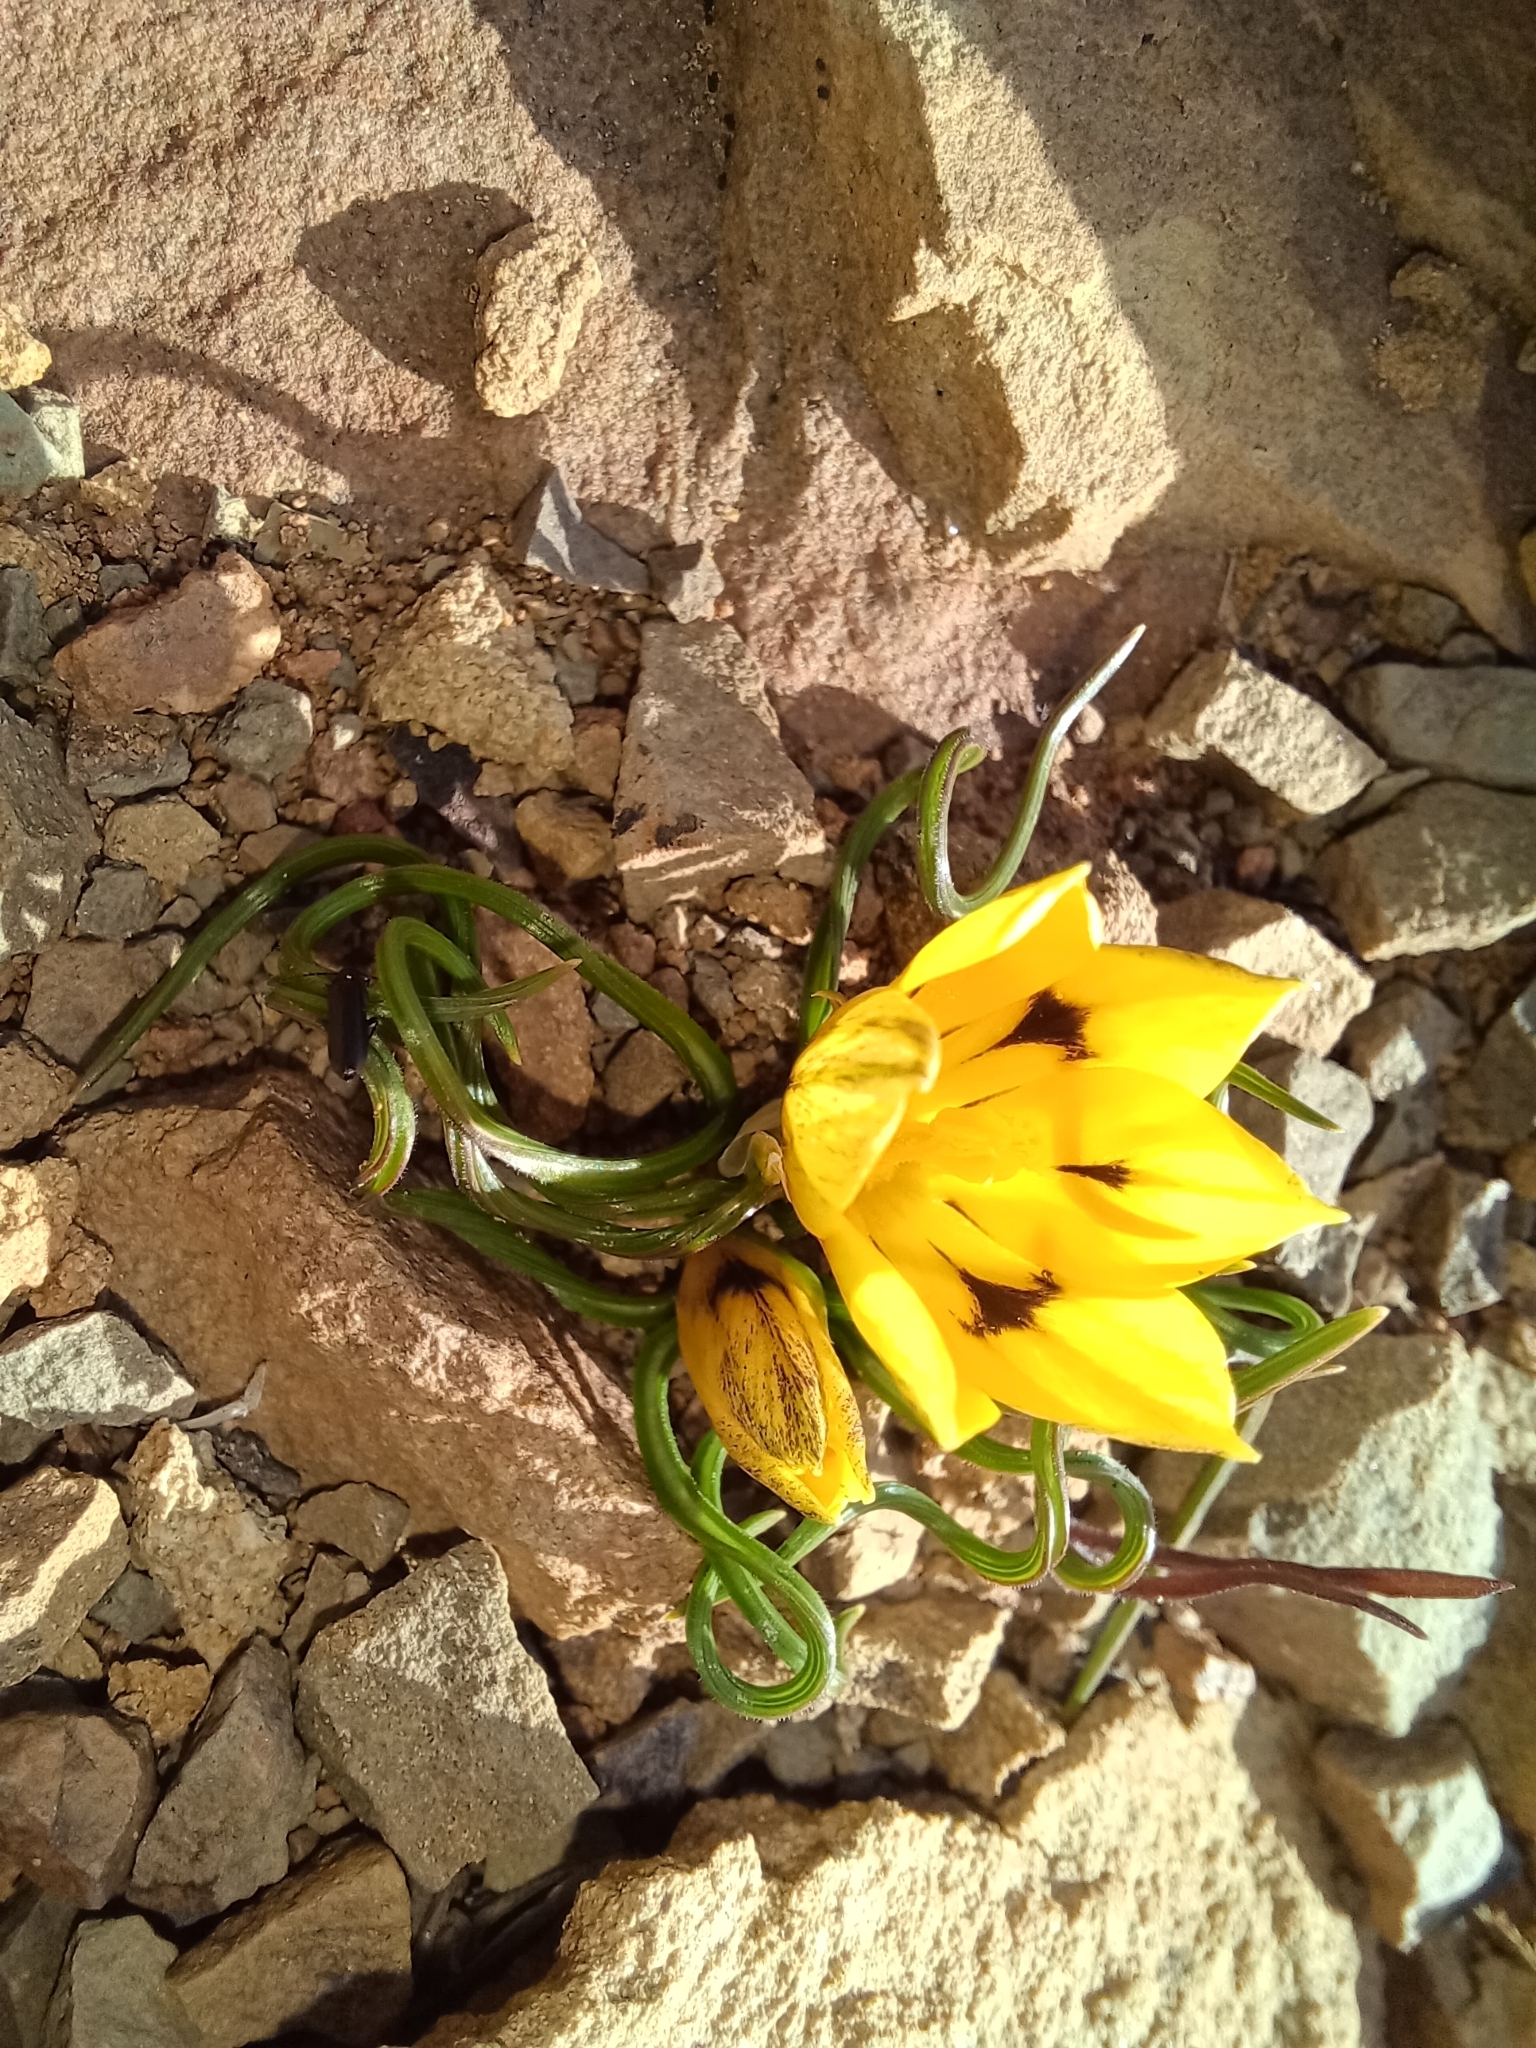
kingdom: Plantae
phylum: Tracheophyta
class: Liliopsida
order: Asparagales
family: Iridaceae
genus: Romulea
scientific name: Romulea tortuosa
